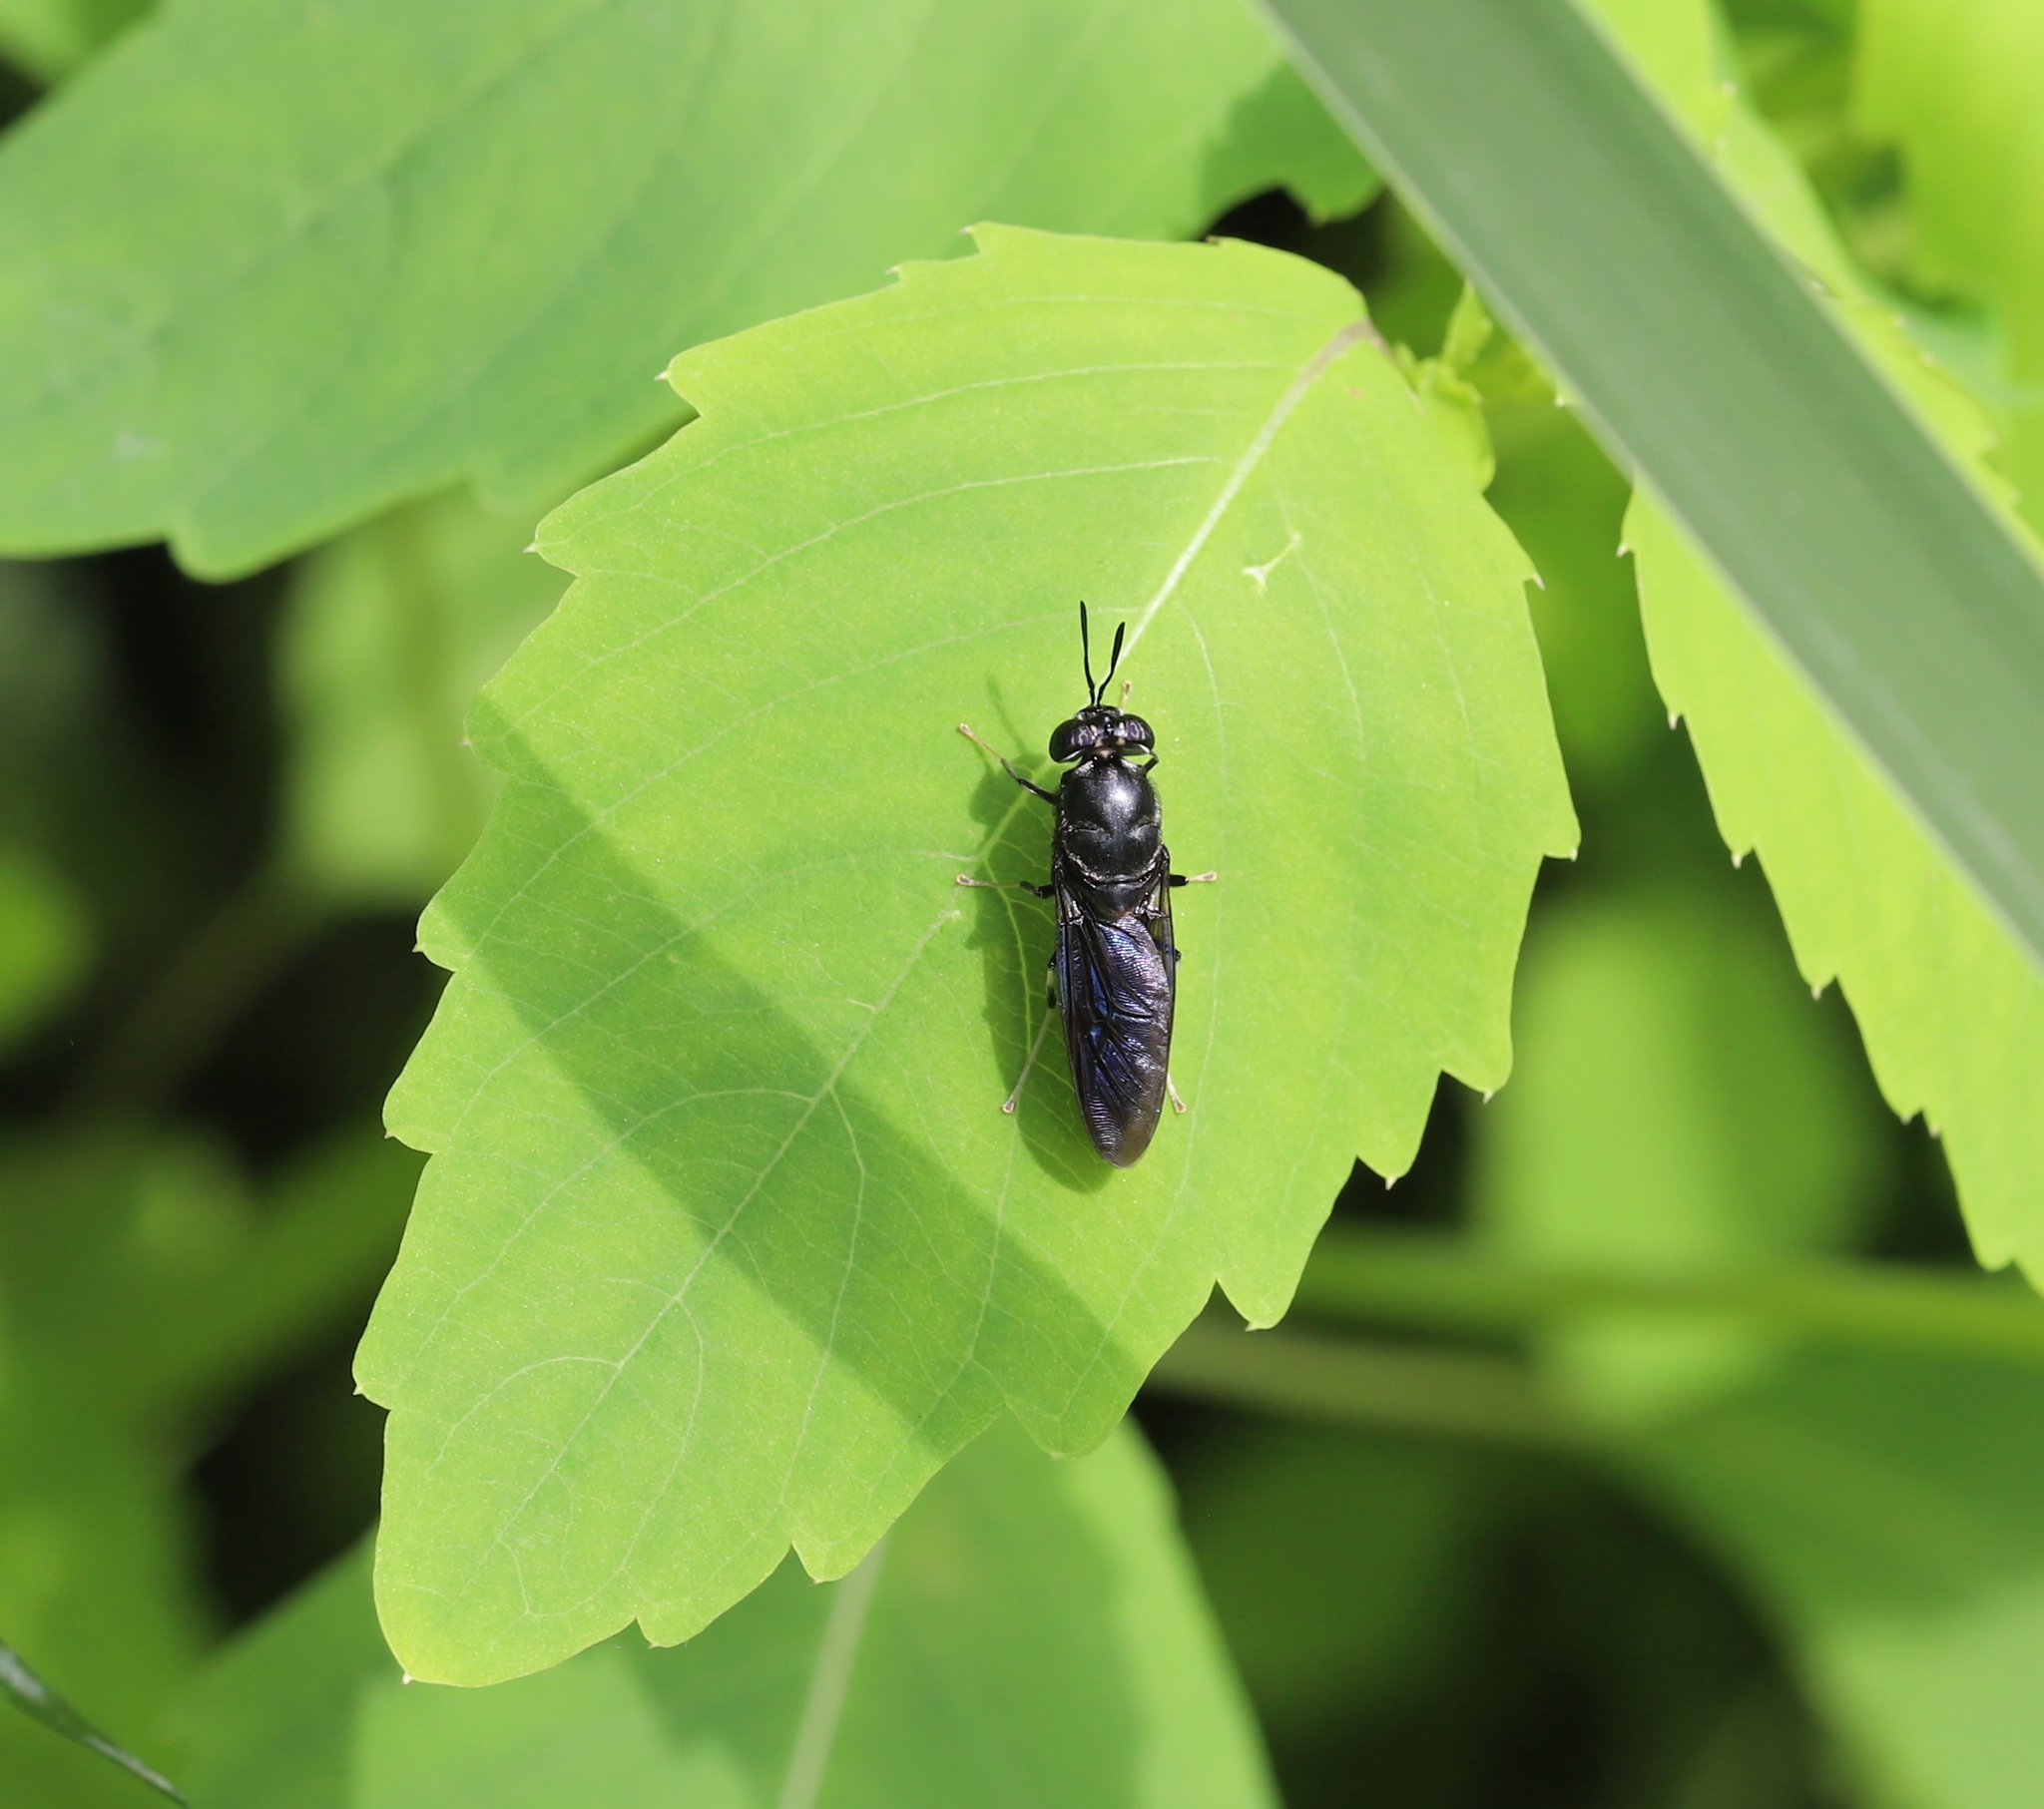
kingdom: Animalia
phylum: Arthropoda
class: Insecta
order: Diptera
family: Stratiomyidae
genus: Hermetia
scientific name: Hermetia illucens
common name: Black soldier fly
